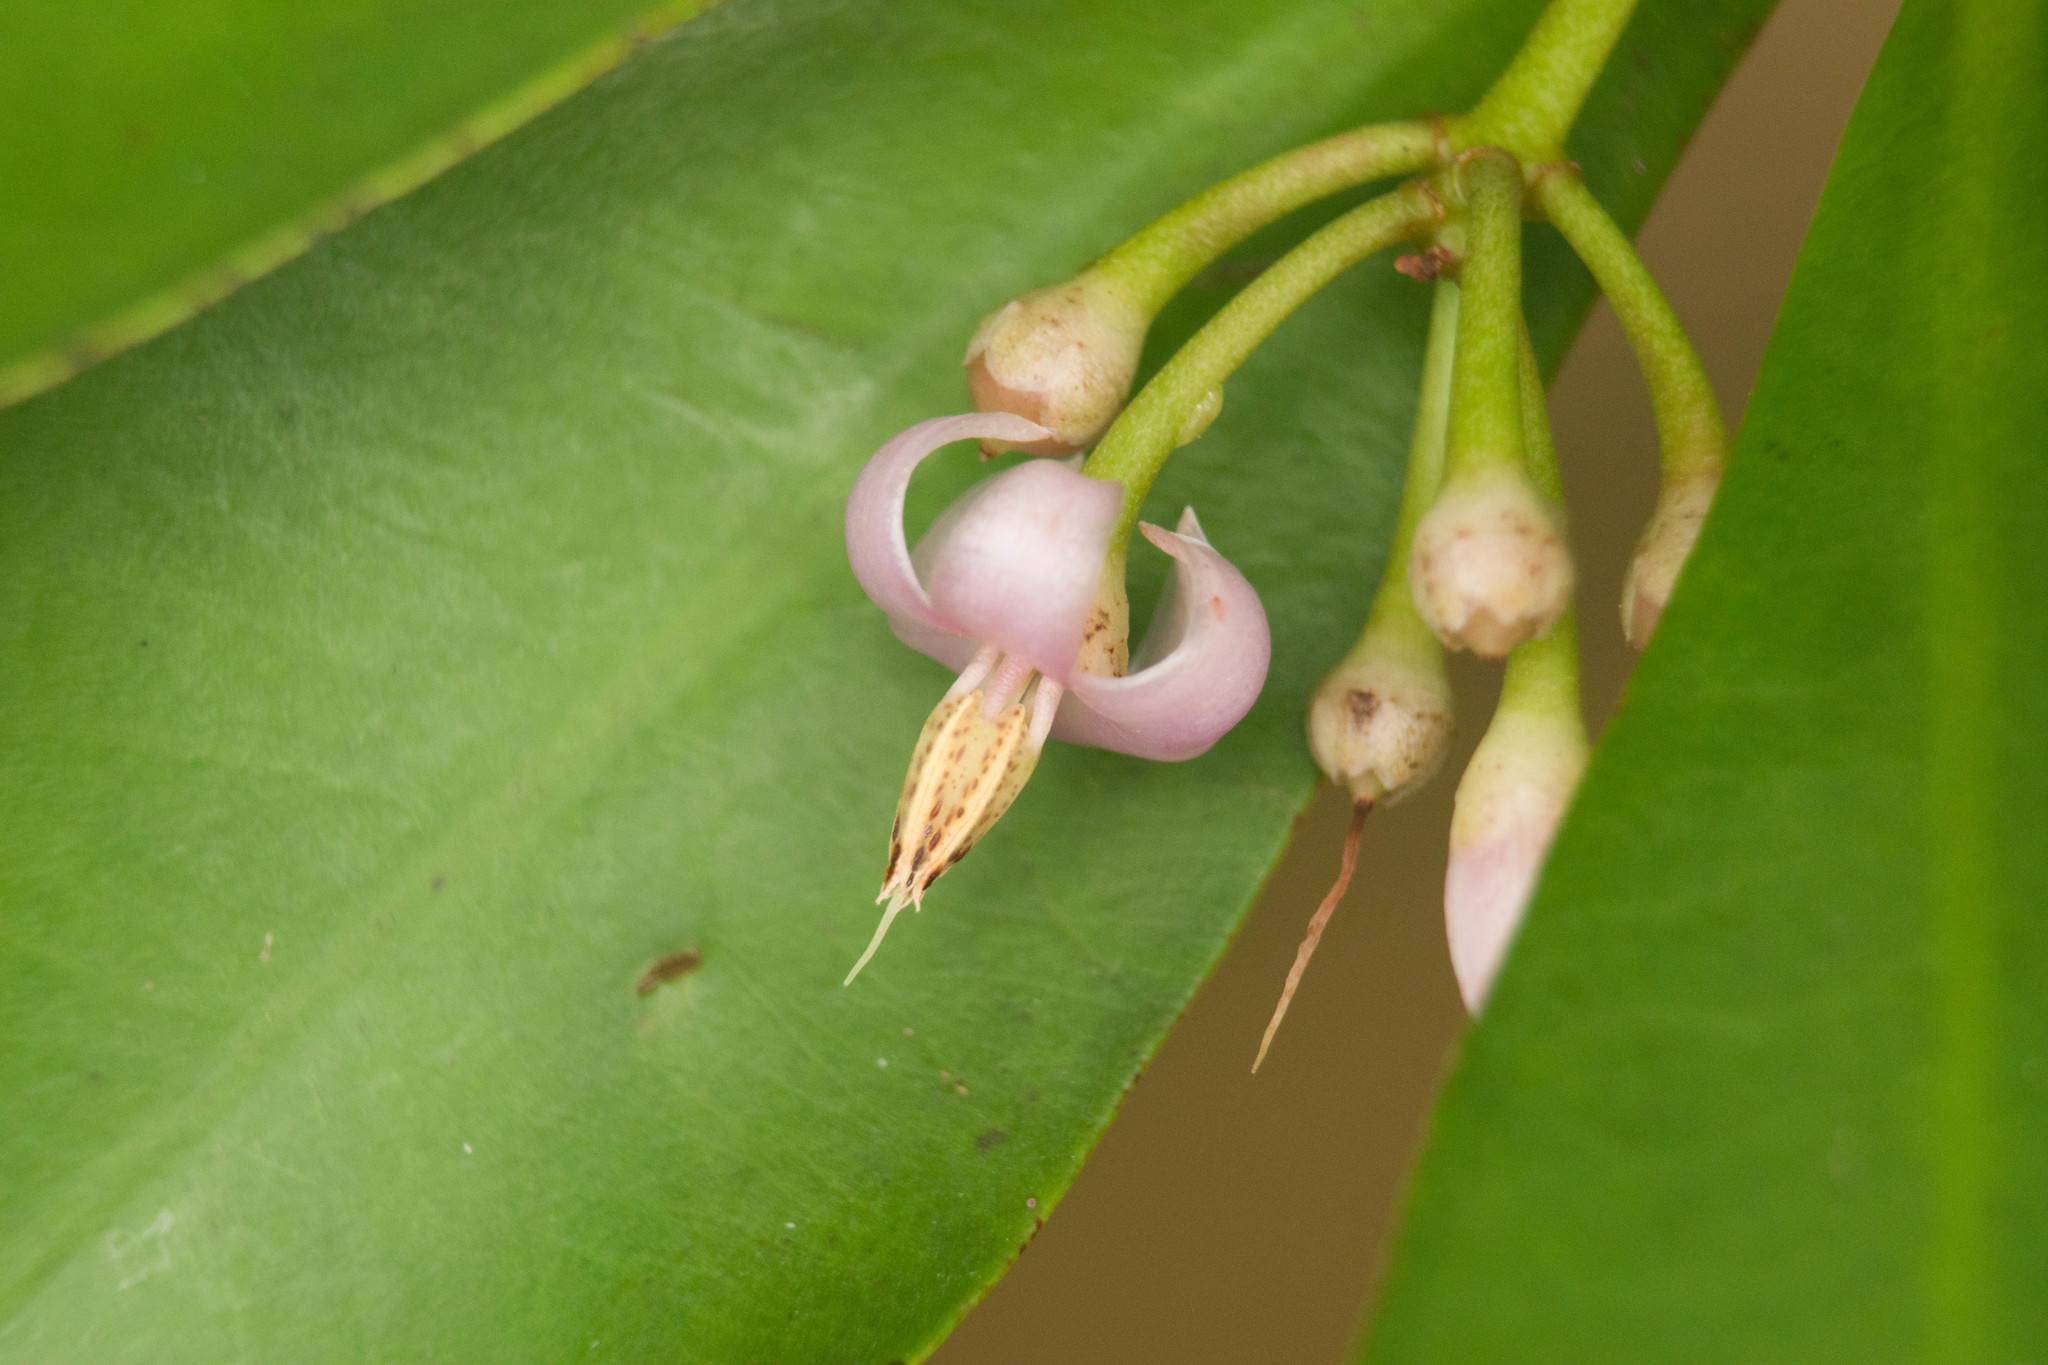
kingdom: Plantae
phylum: Tracheophyta
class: Magnoliopsida
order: Ericales
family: Primulaceae
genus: Ardisia
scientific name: Ardisia elliptica
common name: Shoebutton
